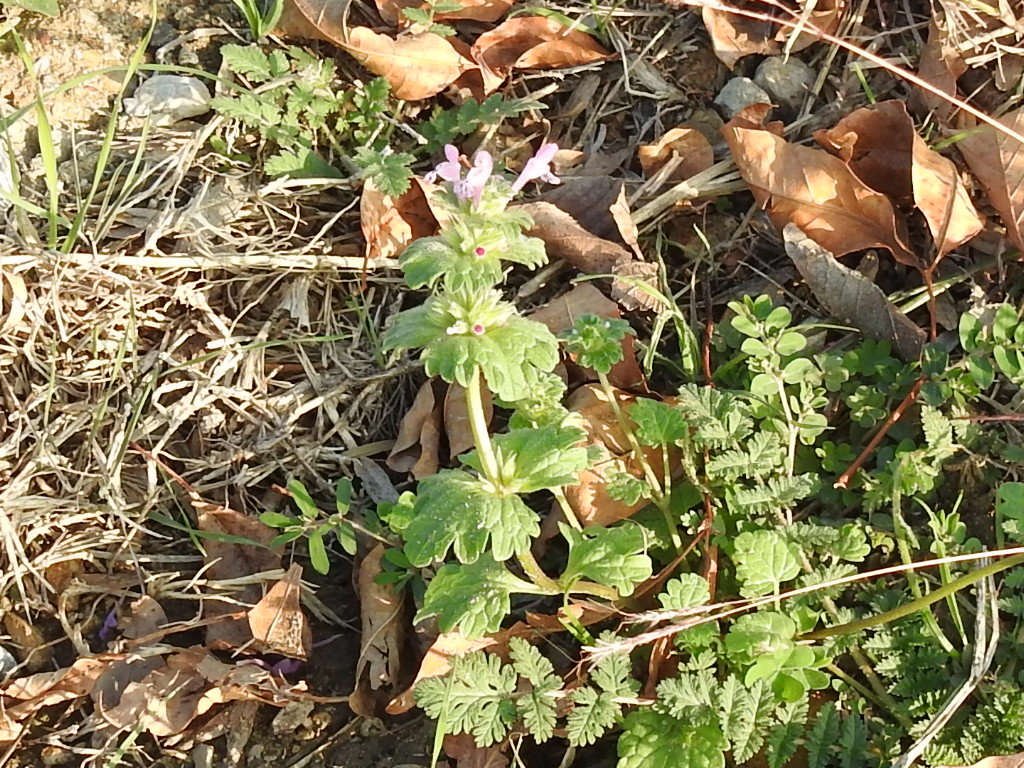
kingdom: Plantae
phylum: Tracheophyta
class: Magnoliopsida
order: Lamiales
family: Lamiaceae
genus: Lamium
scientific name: Lamium amplexicaule
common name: Henbit dead-nettle
